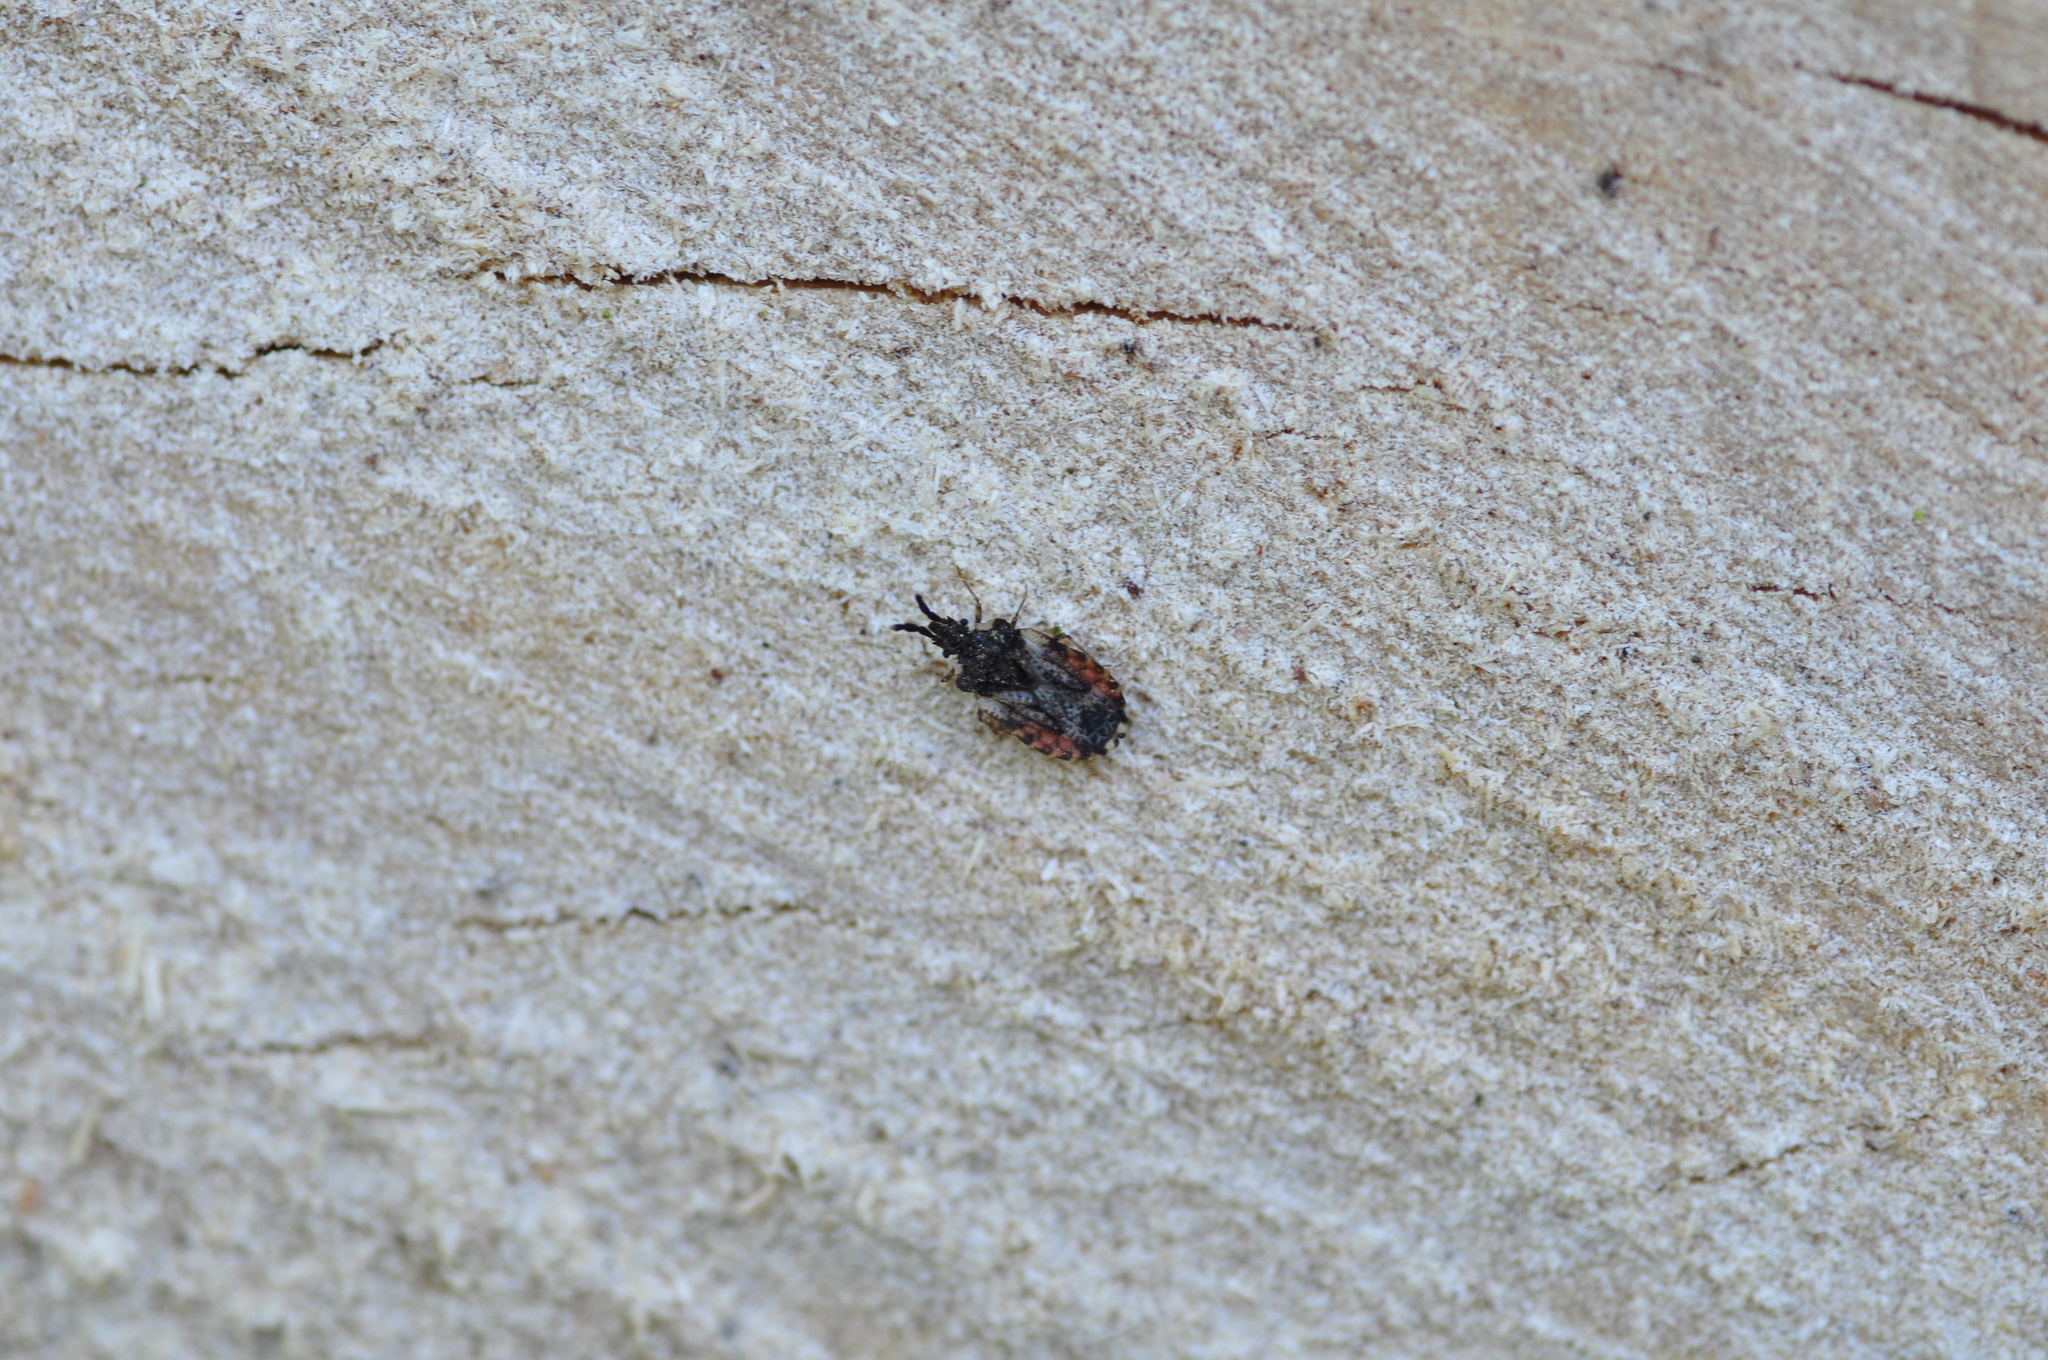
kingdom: Animalia
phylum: Arthropoda
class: Insecta
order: Hemiptera
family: Aradidae
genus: Aradus
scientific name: Aradus depressus
